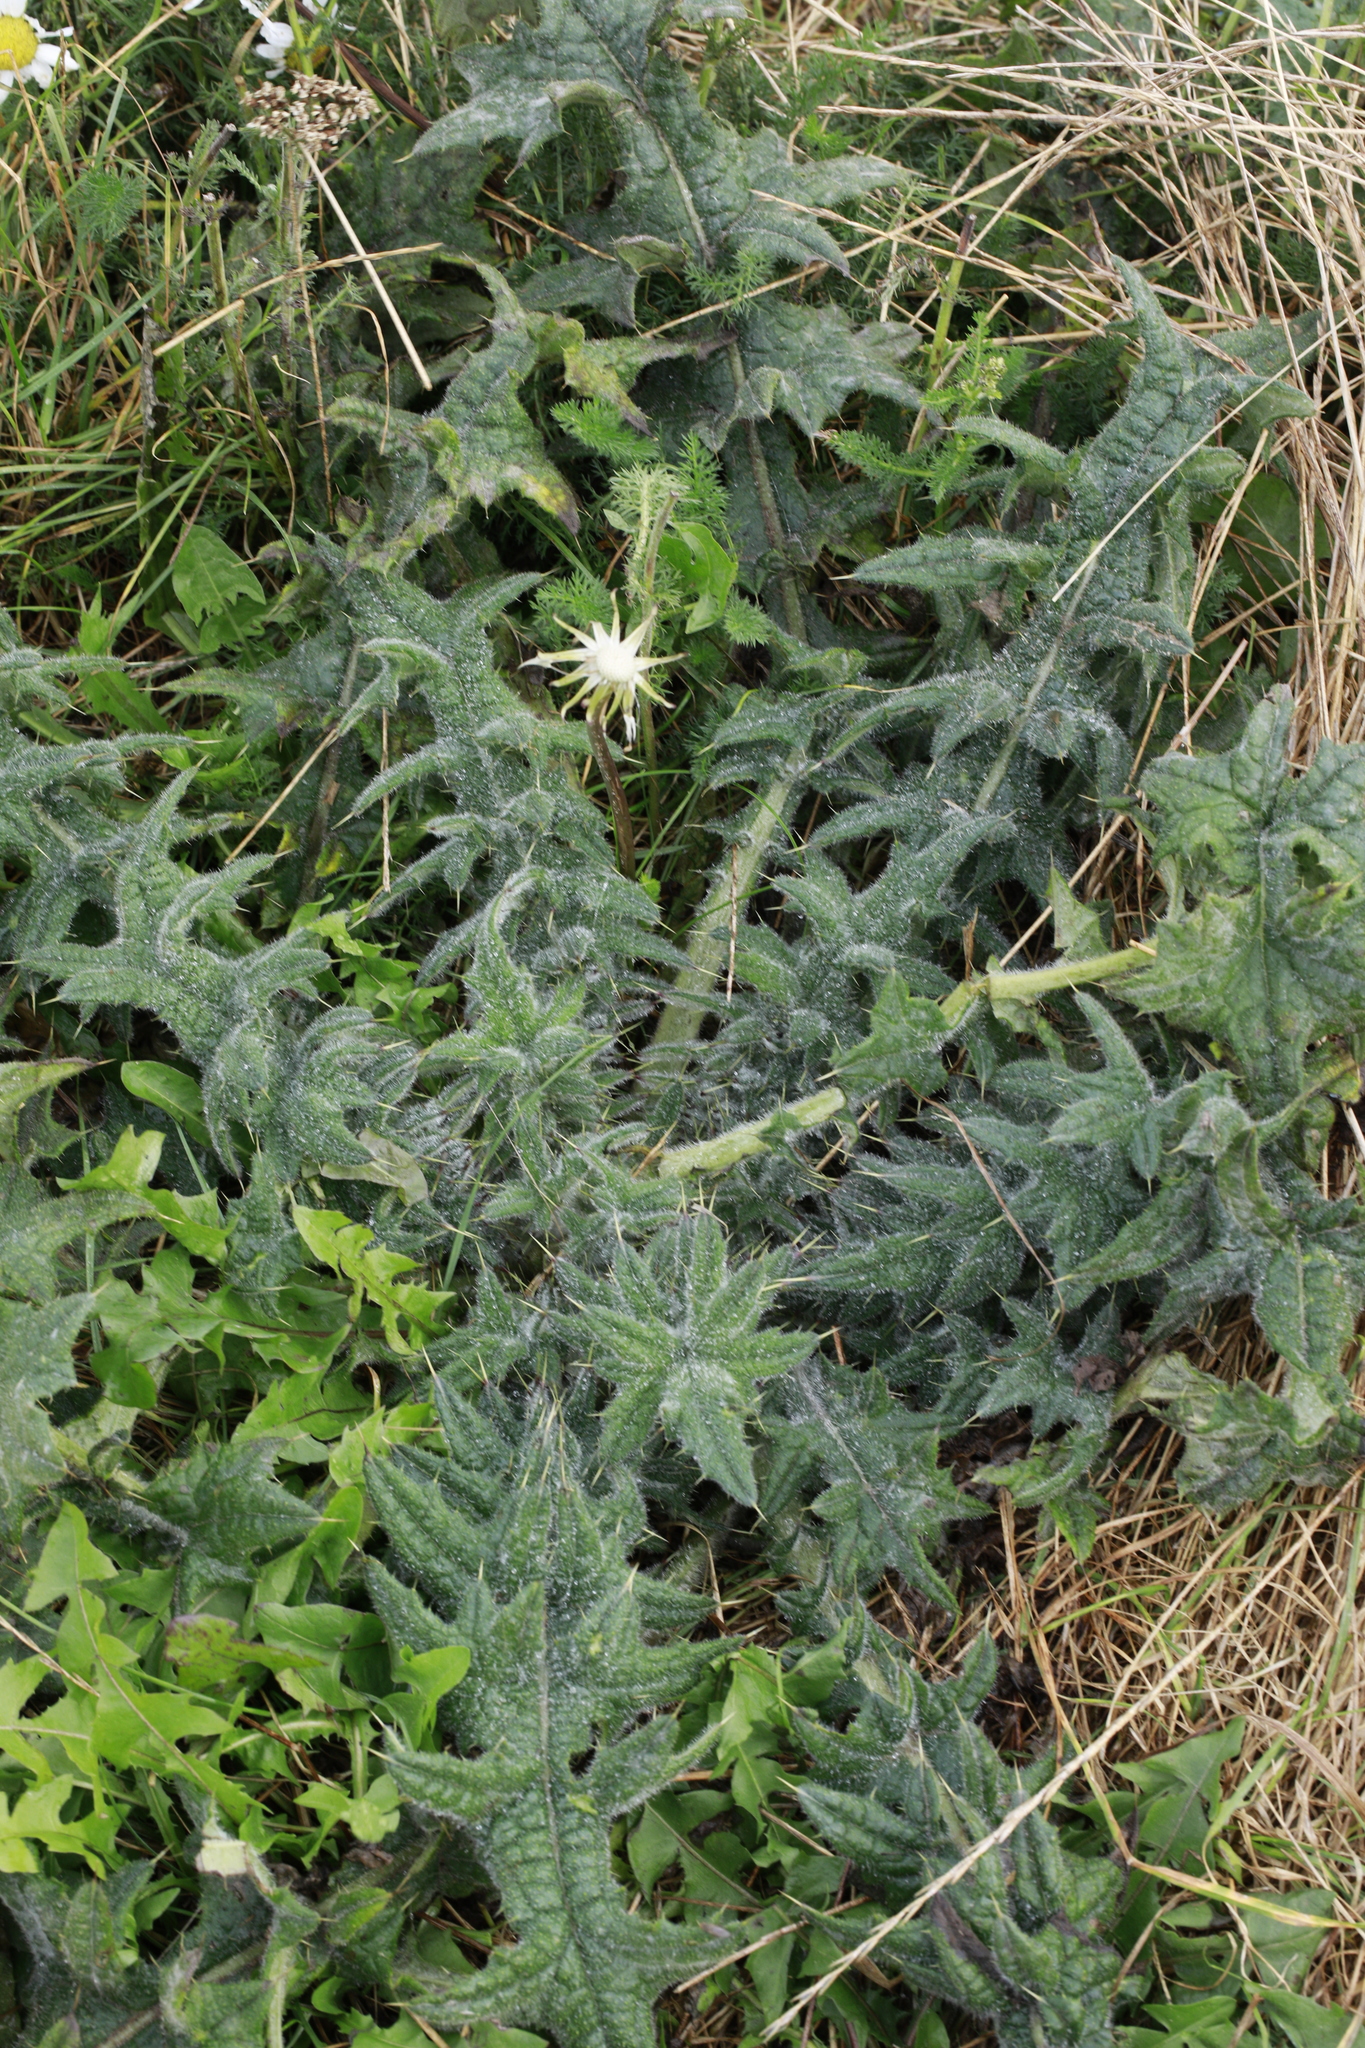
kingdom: Plantae
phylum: Tracheophyta
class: Magnoliopsida
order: Asterales
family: Asteraceae
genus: Cirsium
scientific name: Cirsium vulgare
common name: Bull thistle
